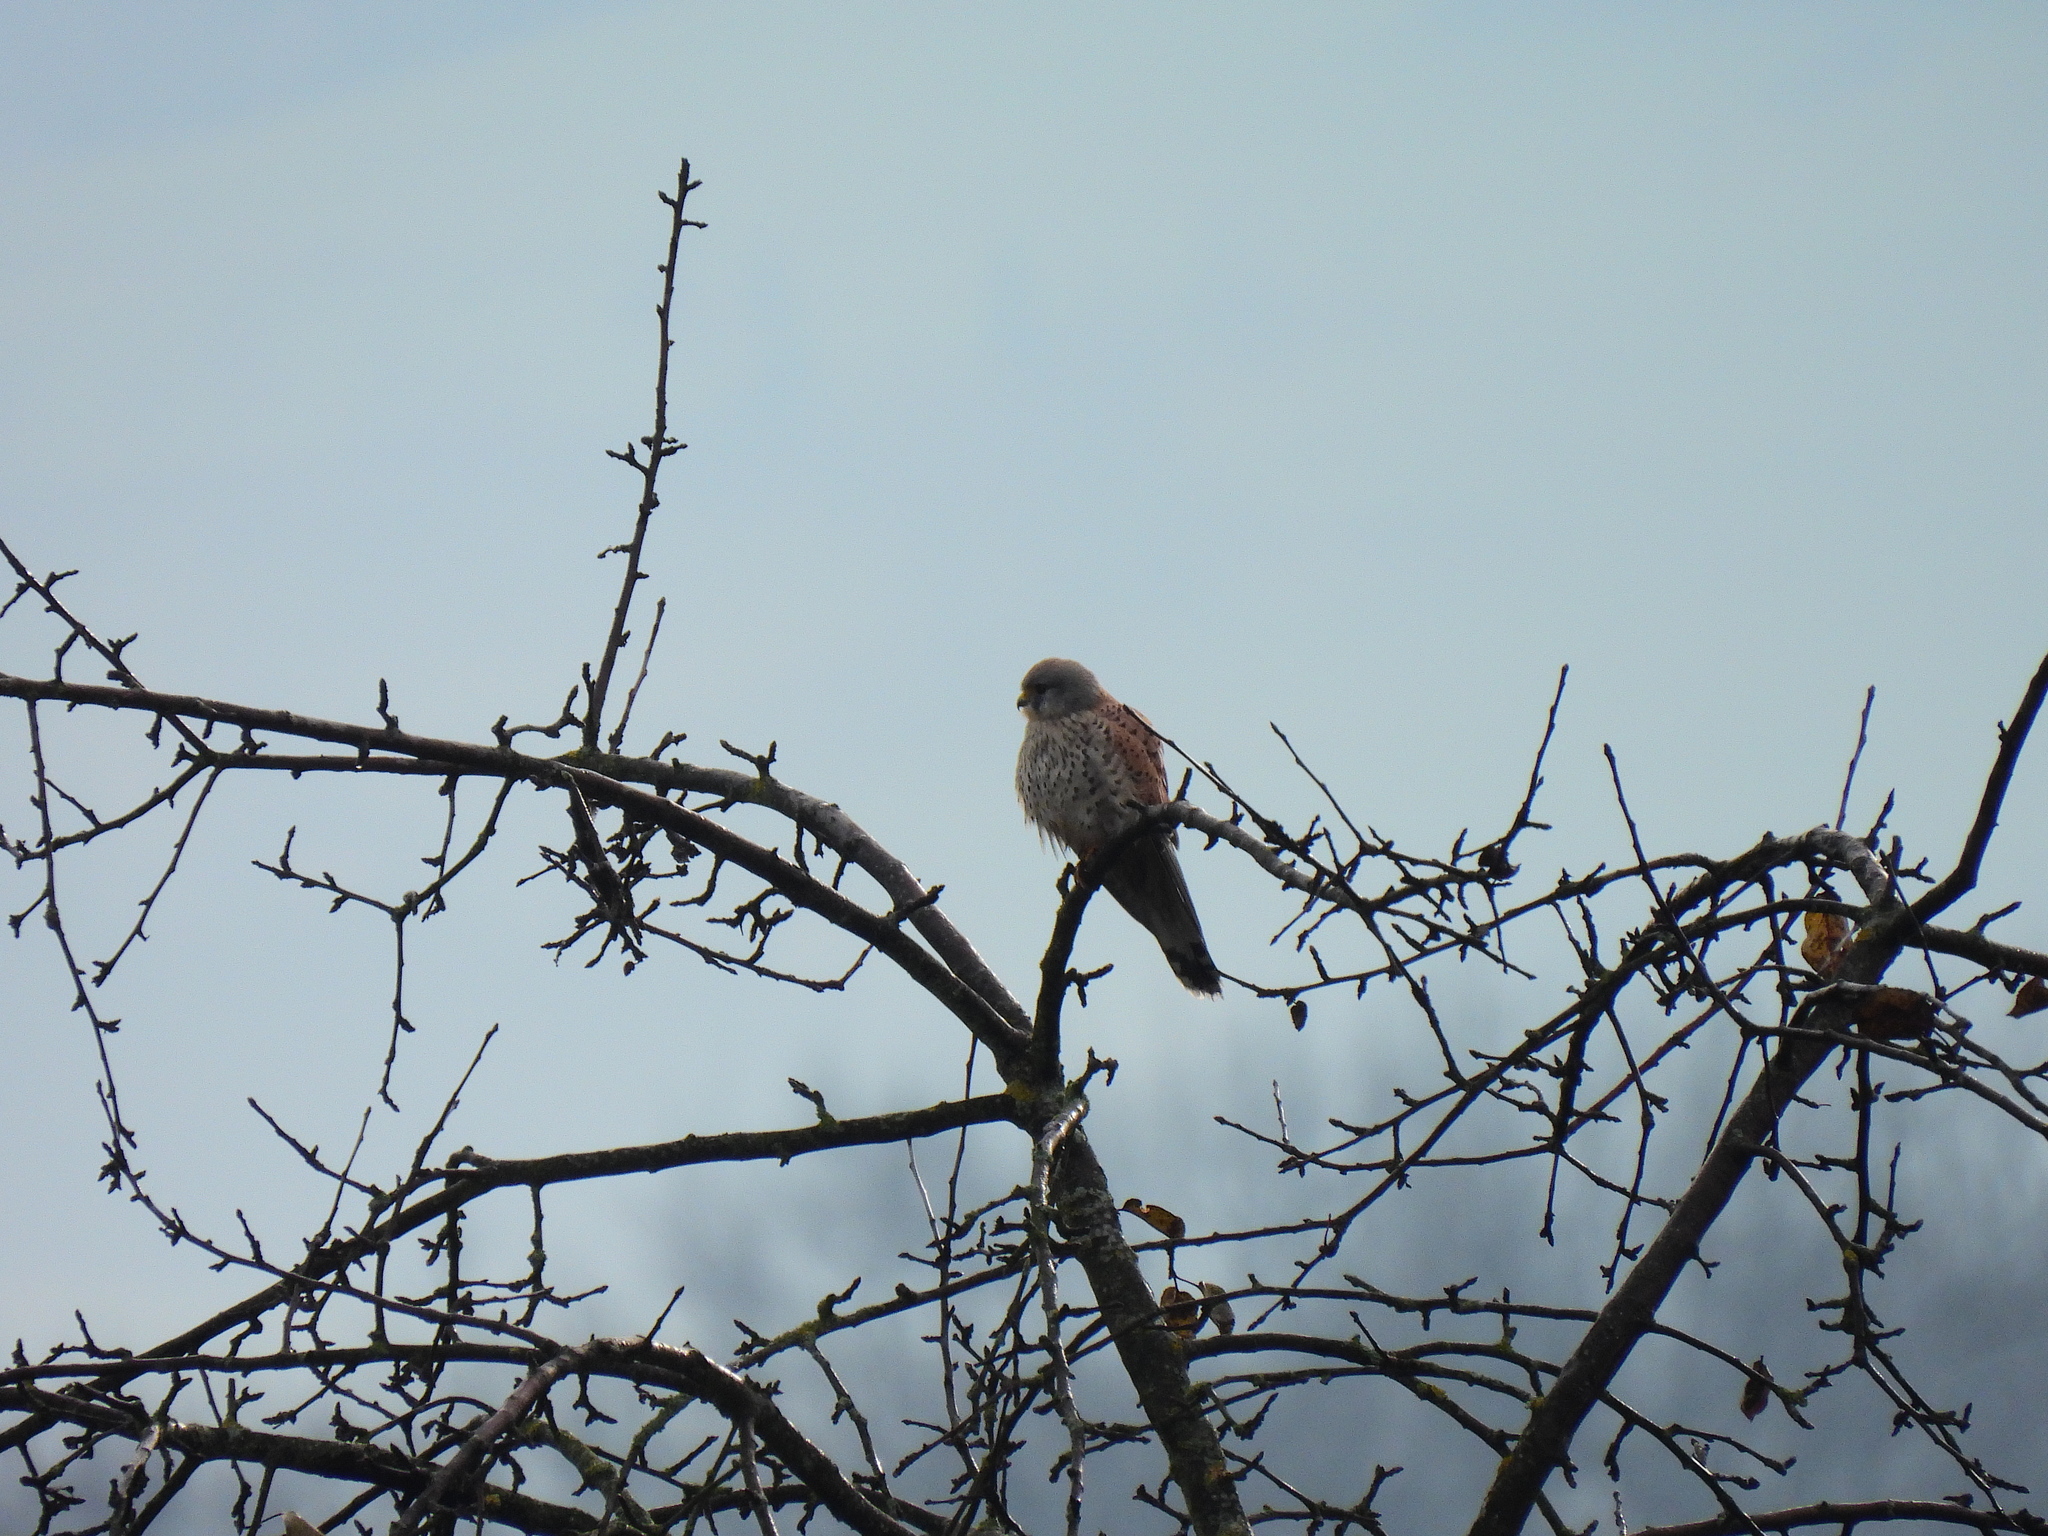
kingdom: Animalia
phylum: Chordata
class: Aves
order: Falconiformes
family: Falconidae
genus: Falco
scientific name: Falco tinnunculus
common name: Common kestrel
